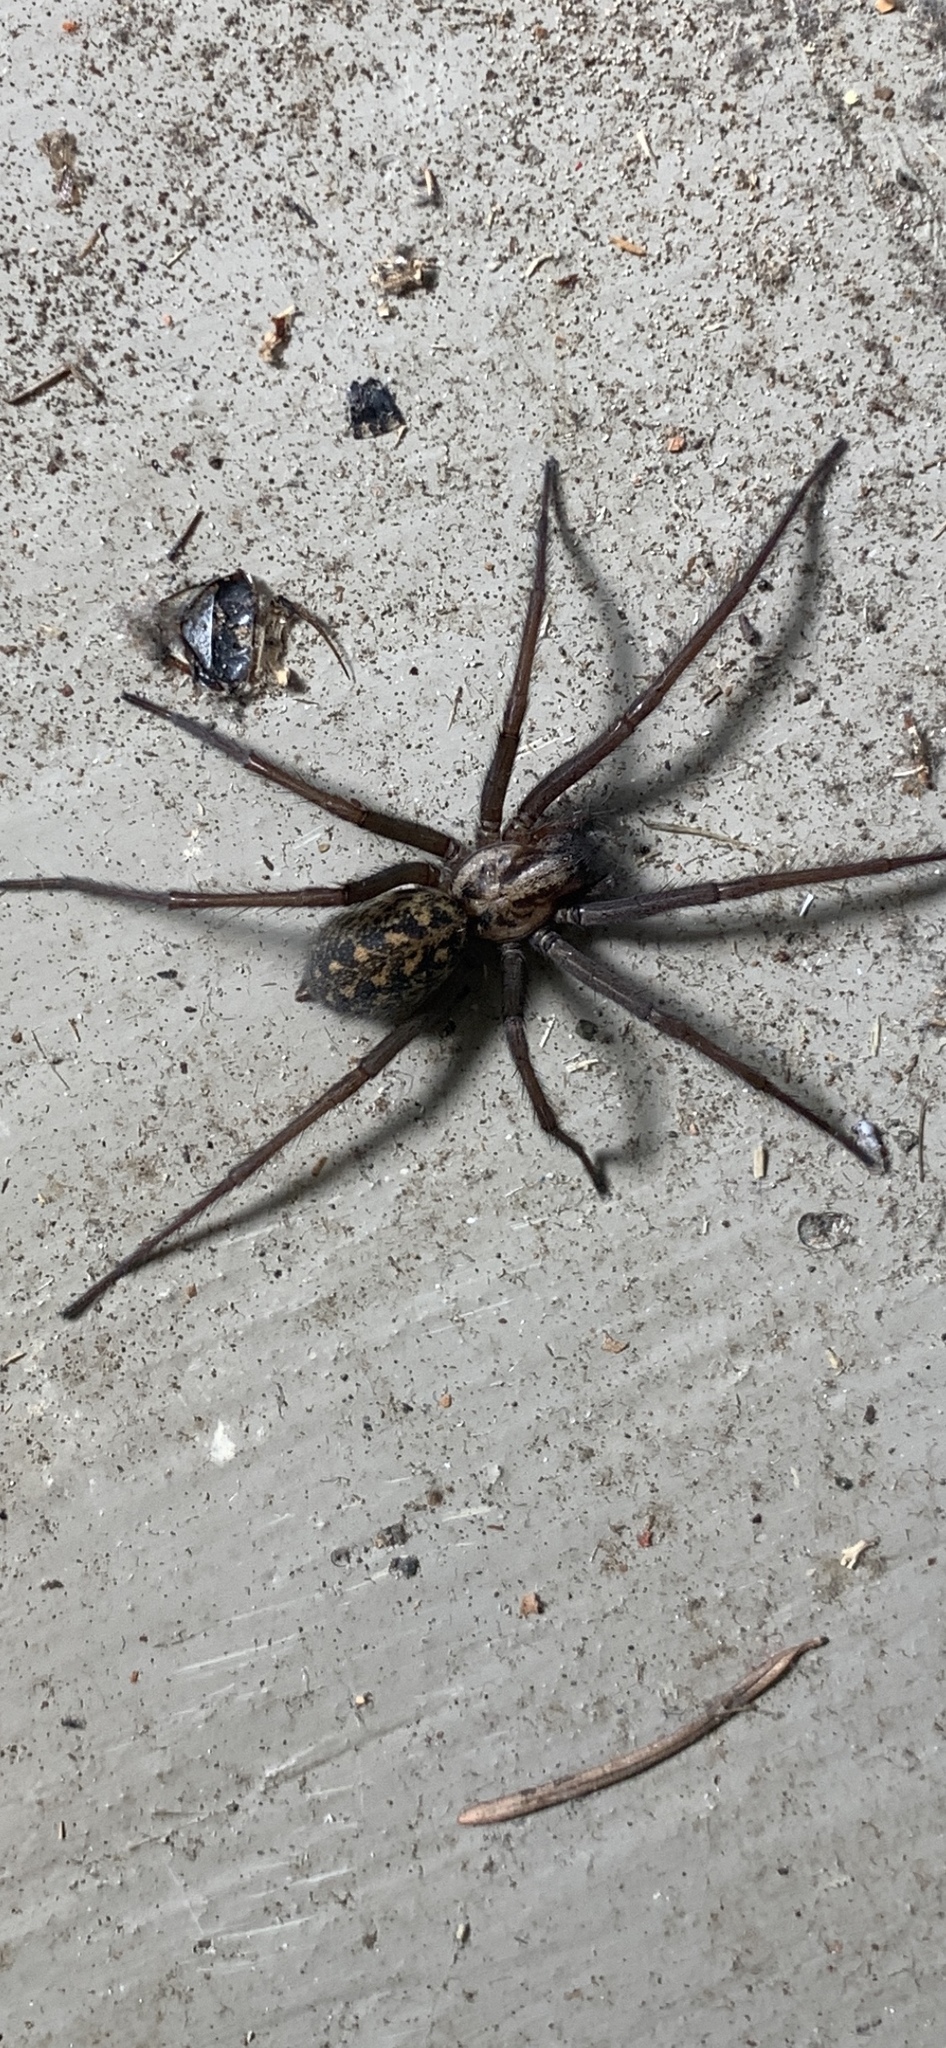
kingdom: Animalia
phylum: Arthropoda
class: Arachnida
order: Araneae
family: Agelenidae
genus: Eratigena
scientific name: Eratigena duellica
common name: Giant house spider
